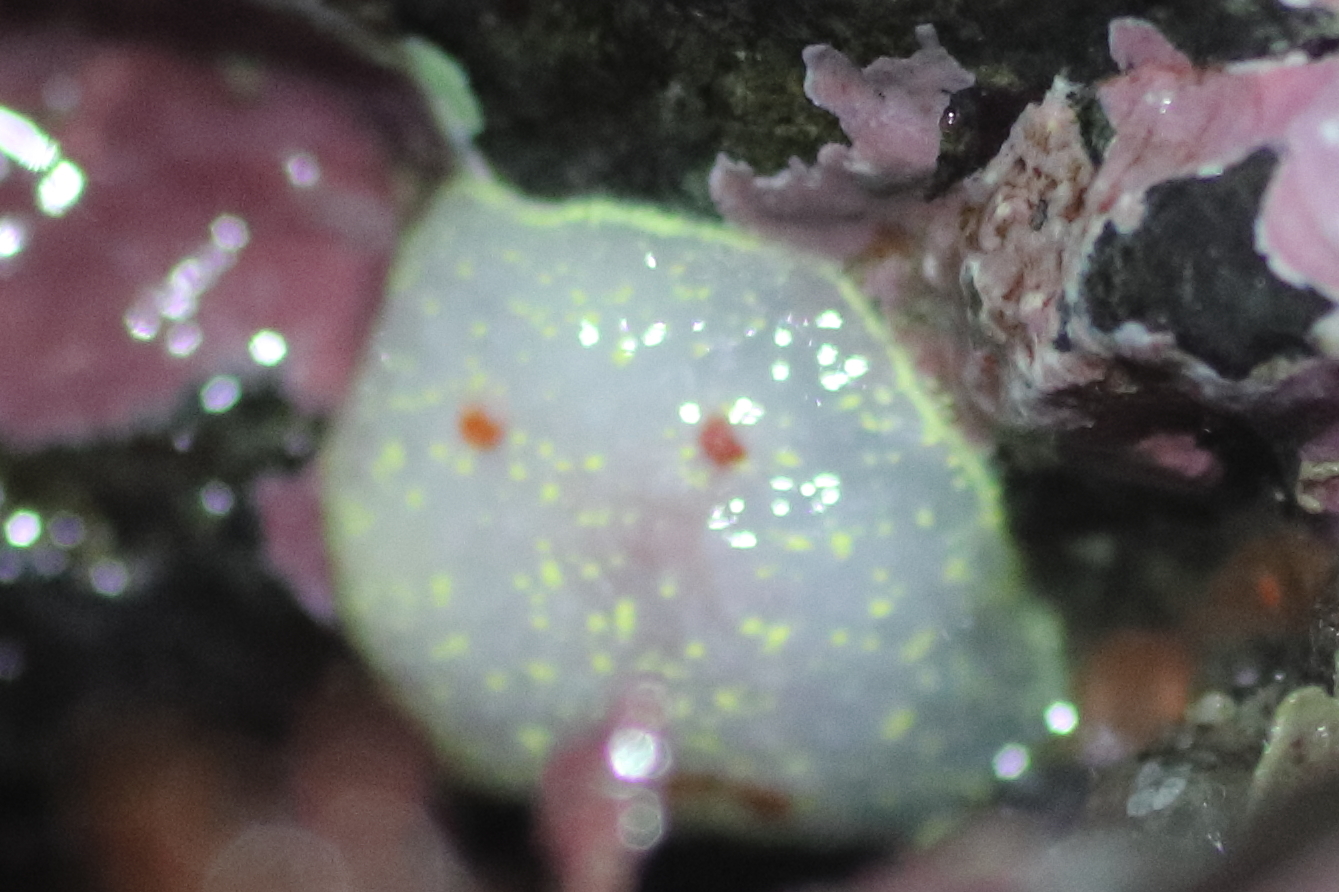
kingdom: Animalia
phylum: Mollusca
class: Gastropoda
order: Nudibranchia
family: Onchidorididae
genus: Acanthodoris
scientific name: Acanthodoris nanaimoensis
